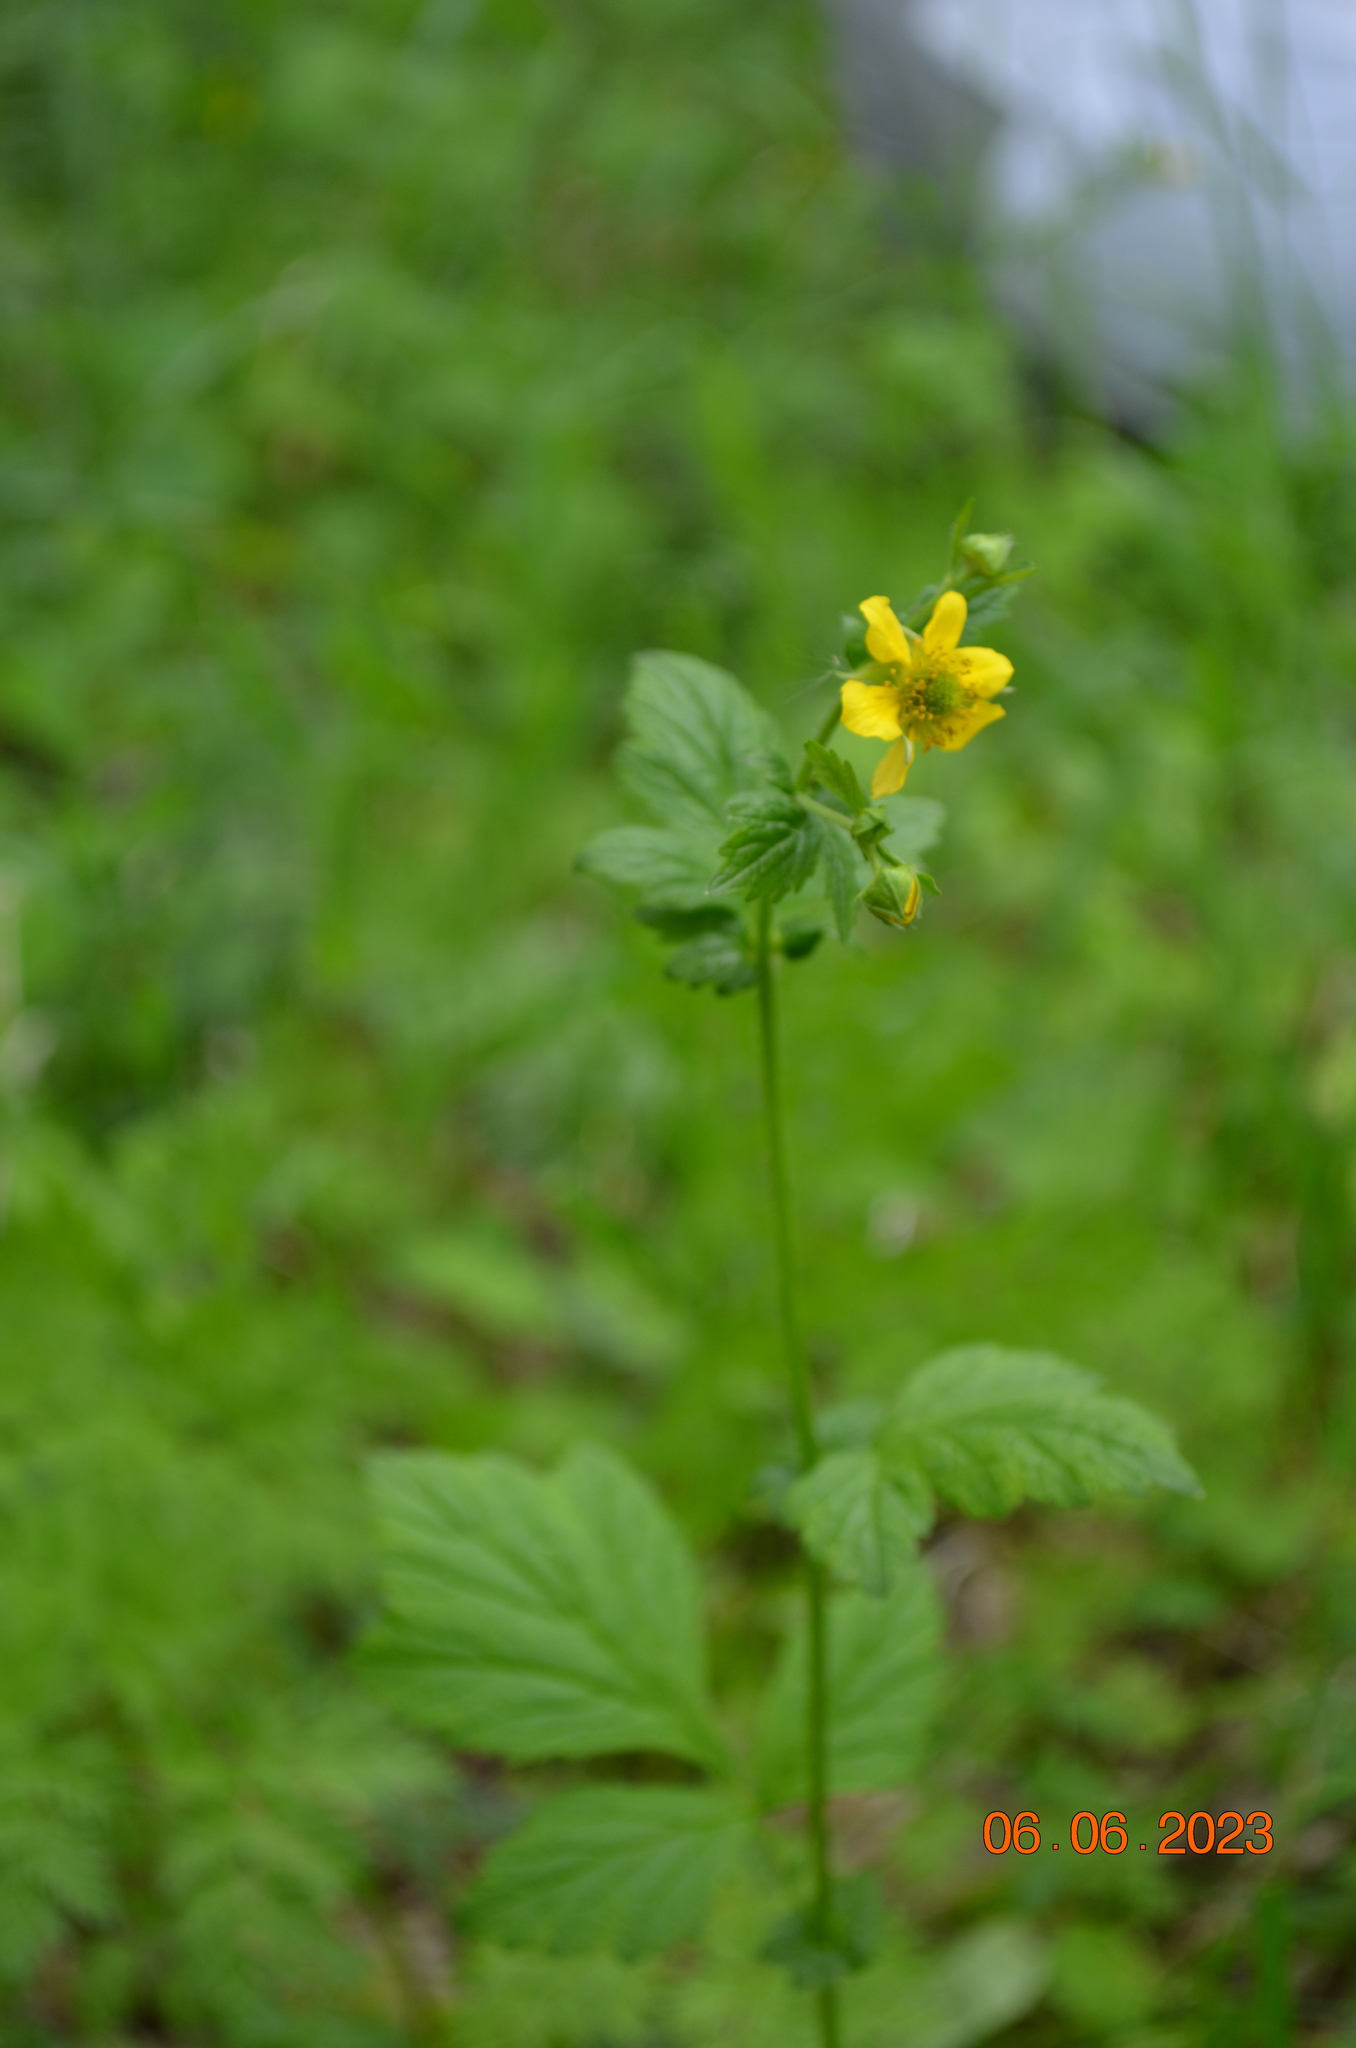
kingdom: Plantae
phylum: Tracheophyta
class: Magnoliopsida
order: Rosales
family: Rosaceae
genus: Geum
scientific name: Geum urbanum
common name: Wood avens
